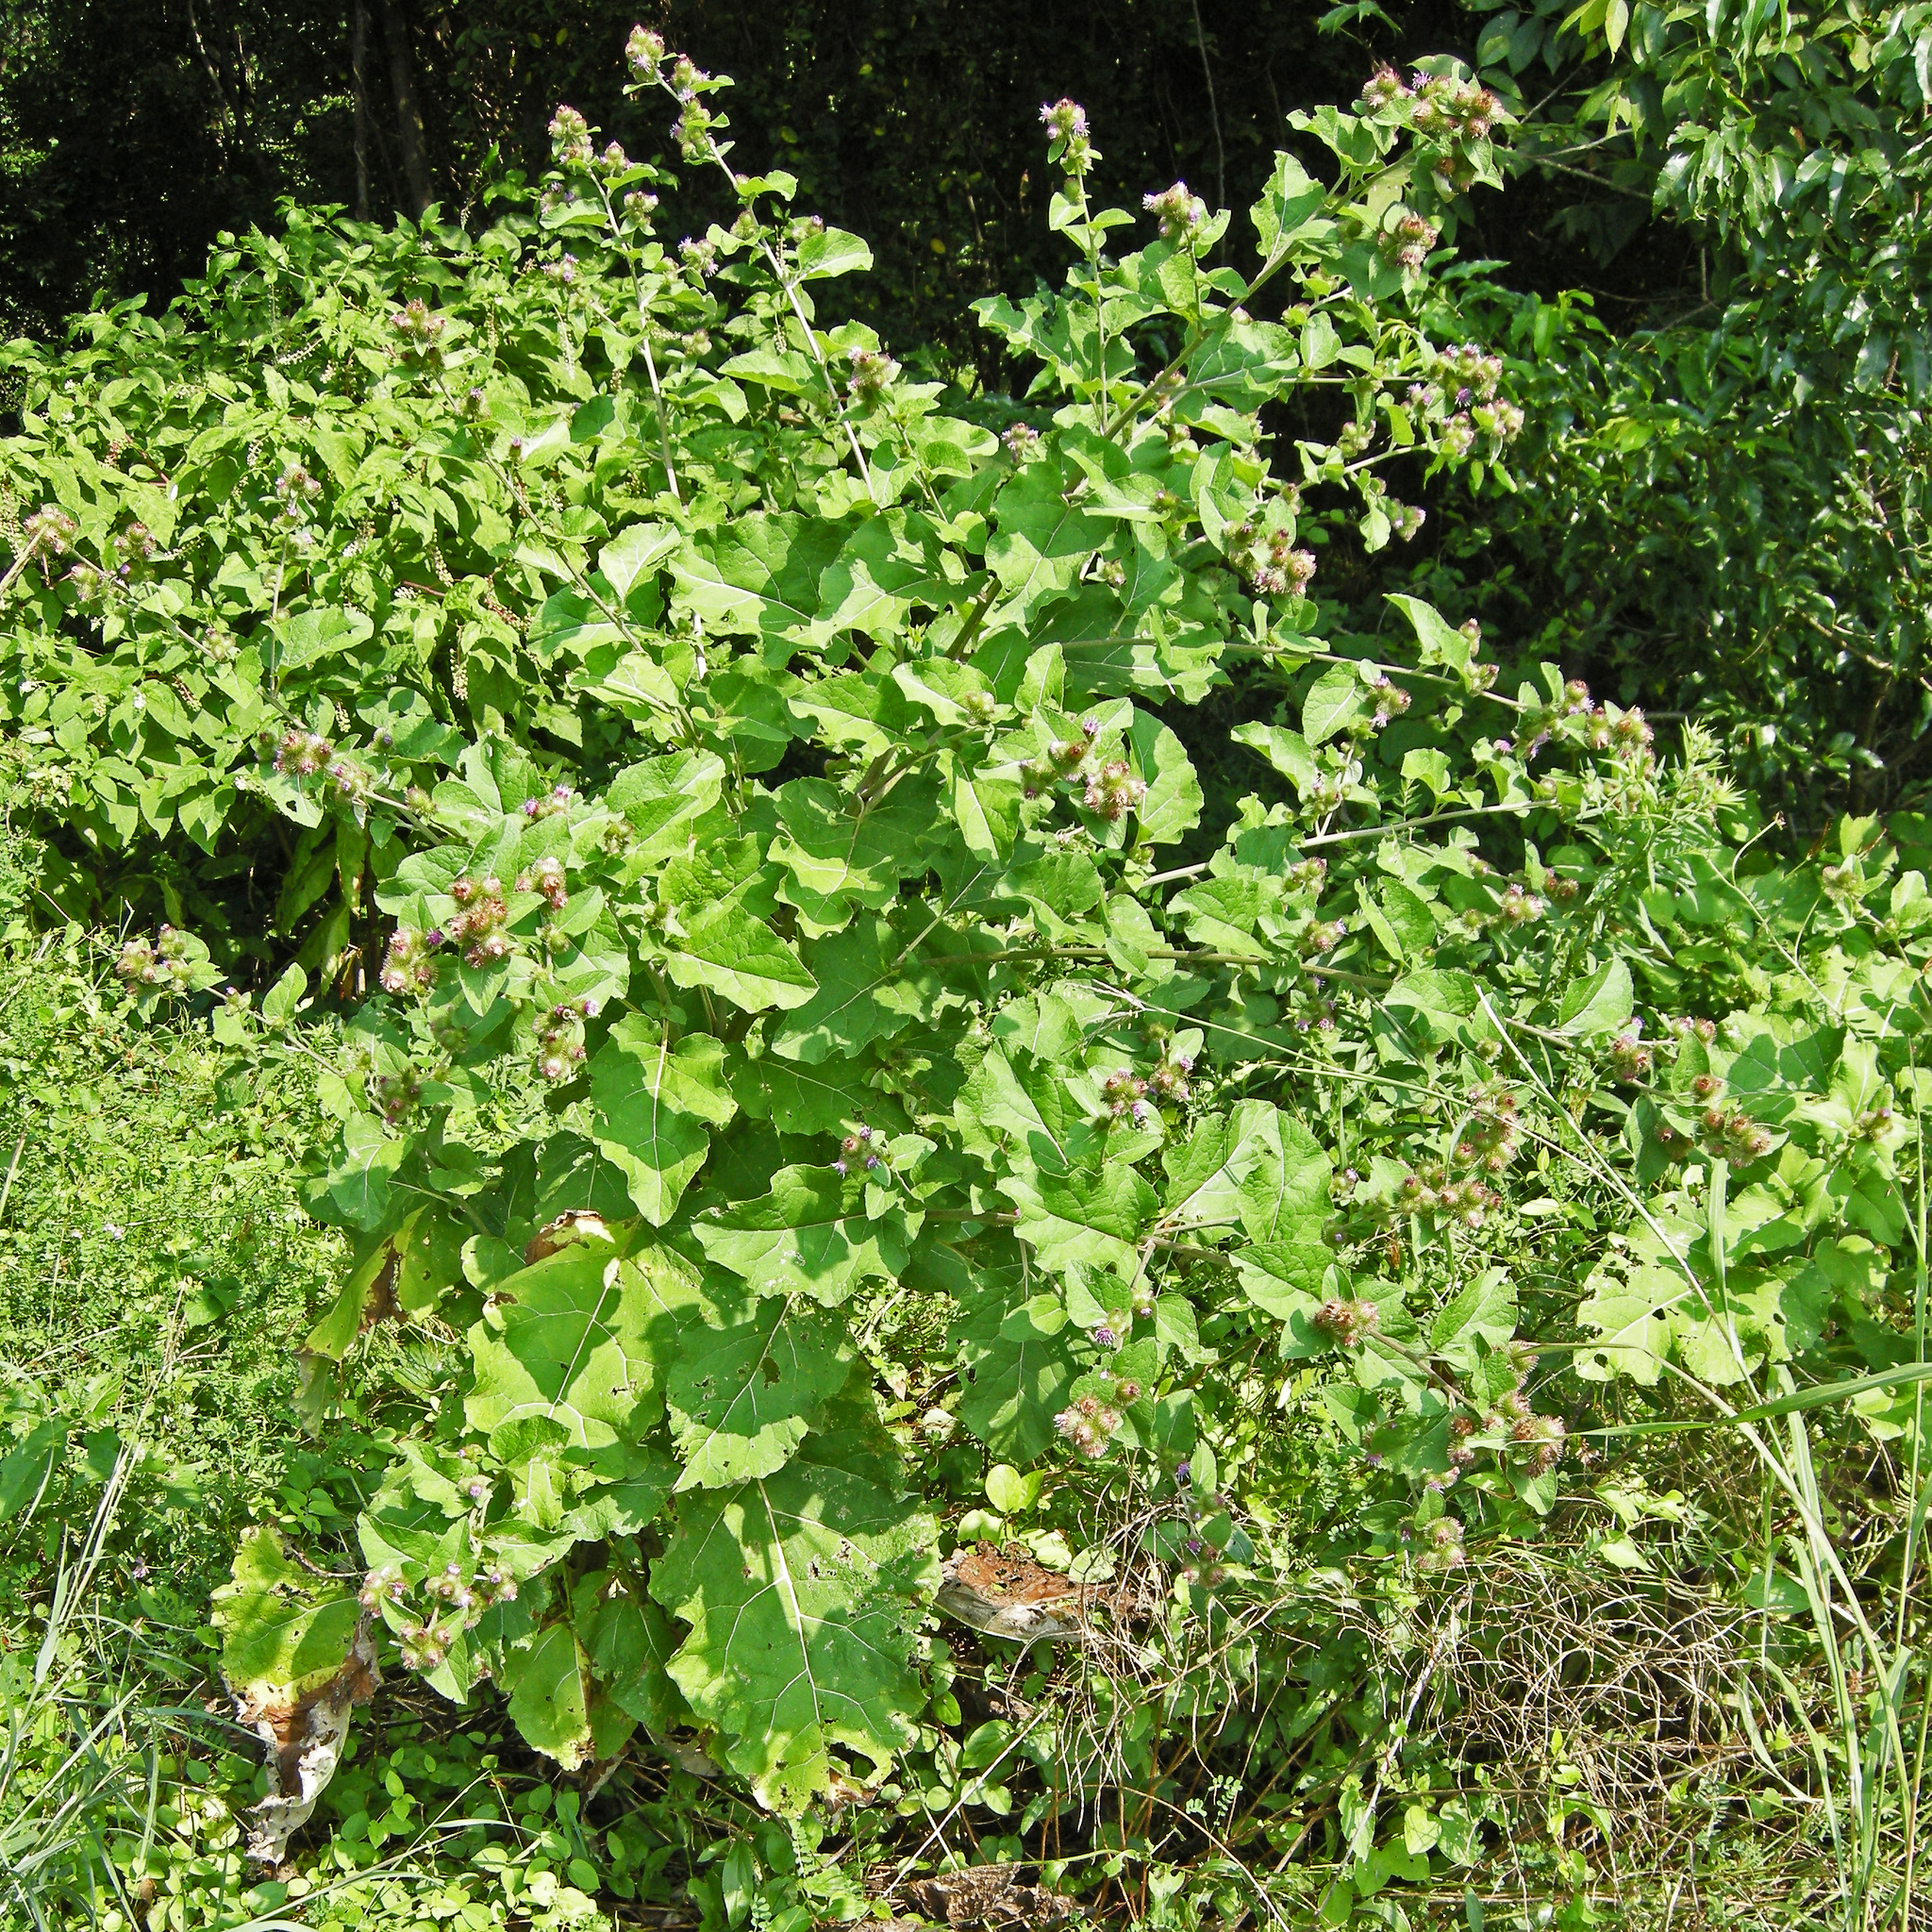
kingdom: Plantae
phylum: Tracheophyta
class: Magnoliopsida
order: Asterales
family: Asteraceae
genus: Arctium
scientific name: Arctium lappa
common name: Greater burdock
